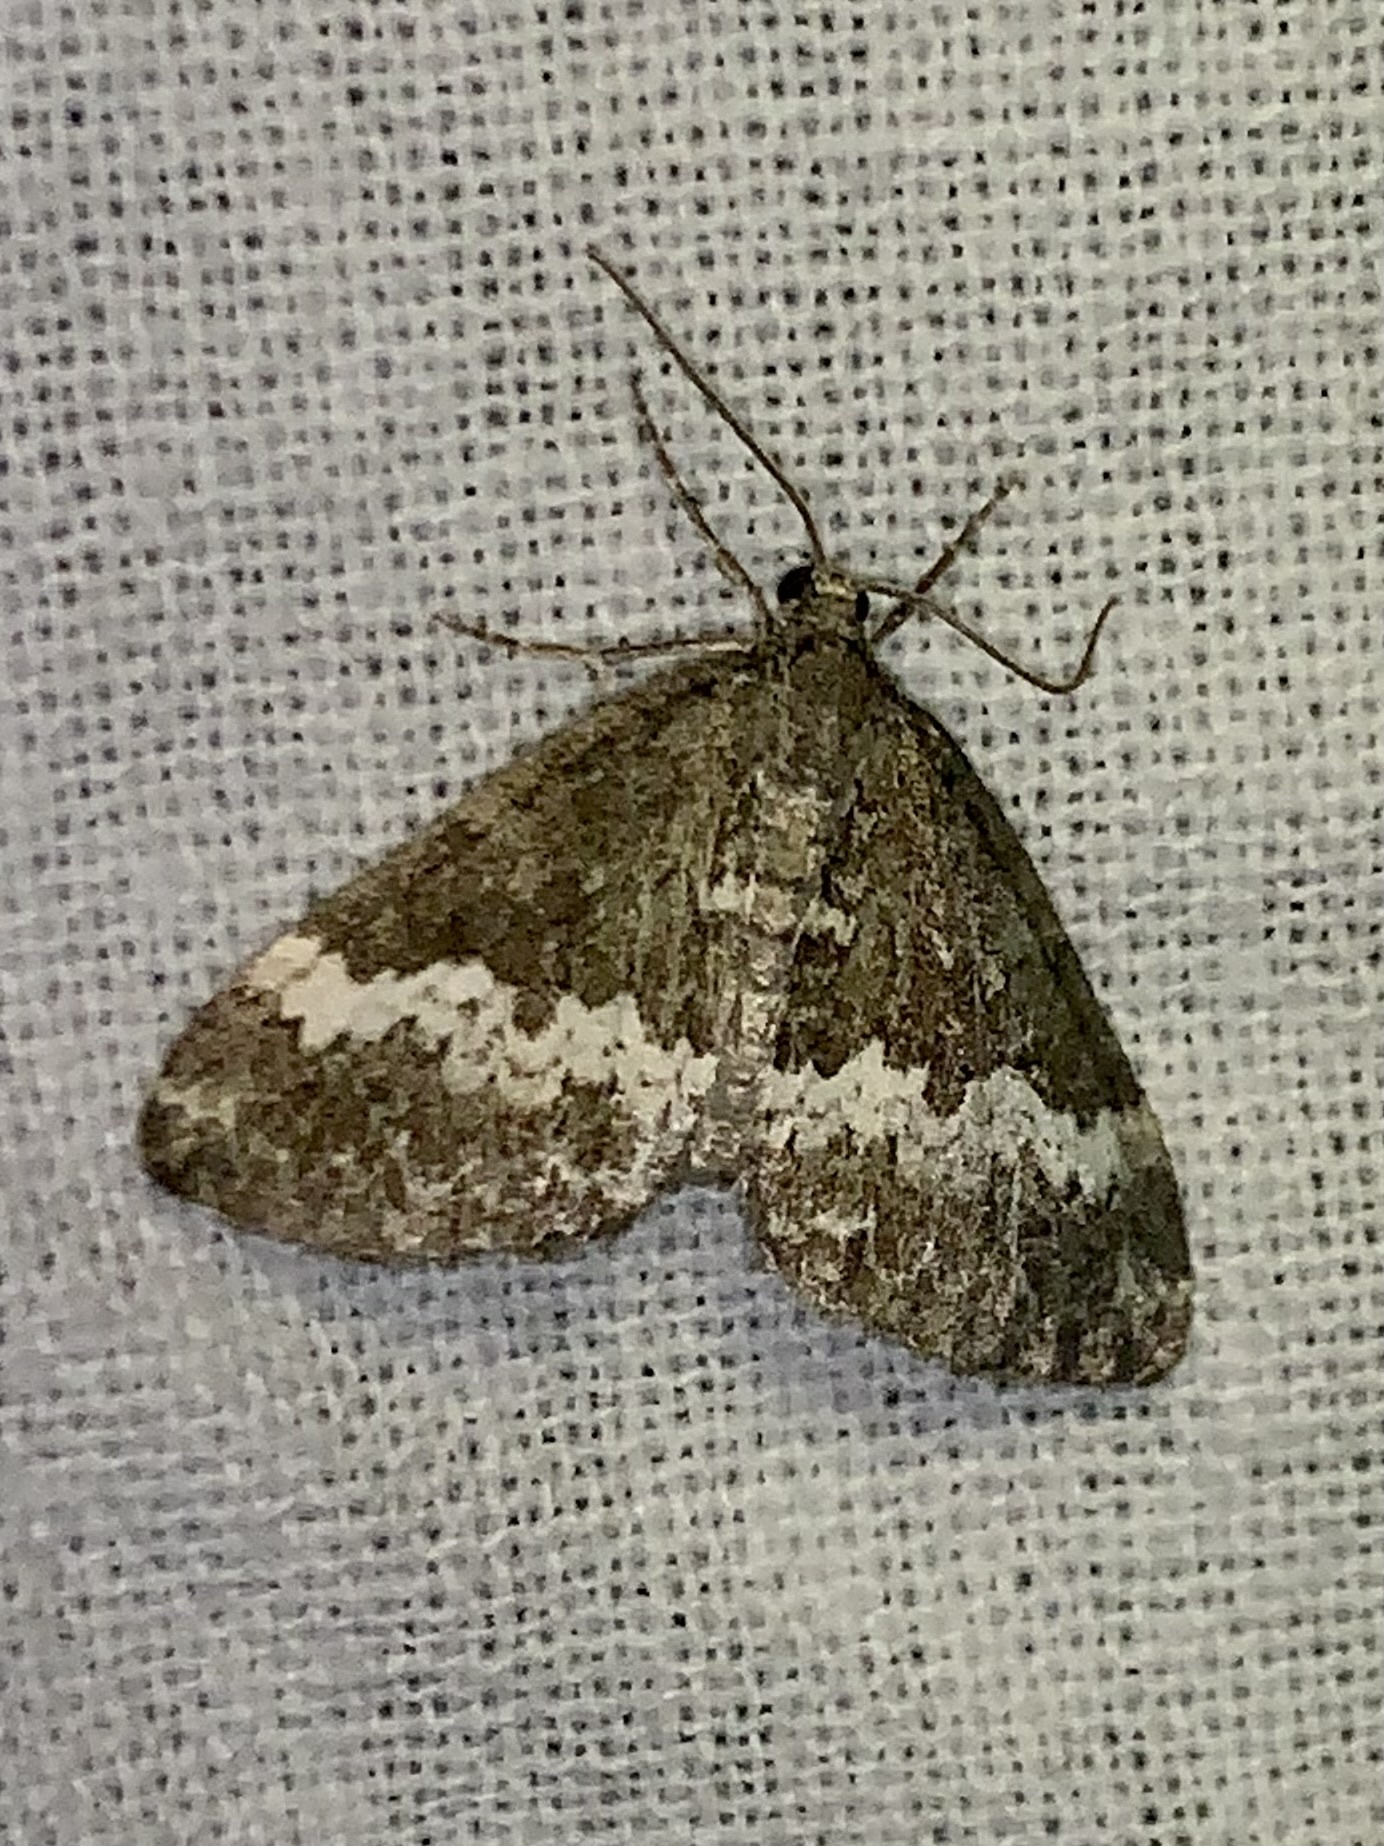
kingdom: Animalia
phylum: Arthropoda
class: Insecta
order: Lepidoptera
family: Geometridae
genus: Perizoma
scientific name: Perizoma alchemillata
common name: Small rivulet
